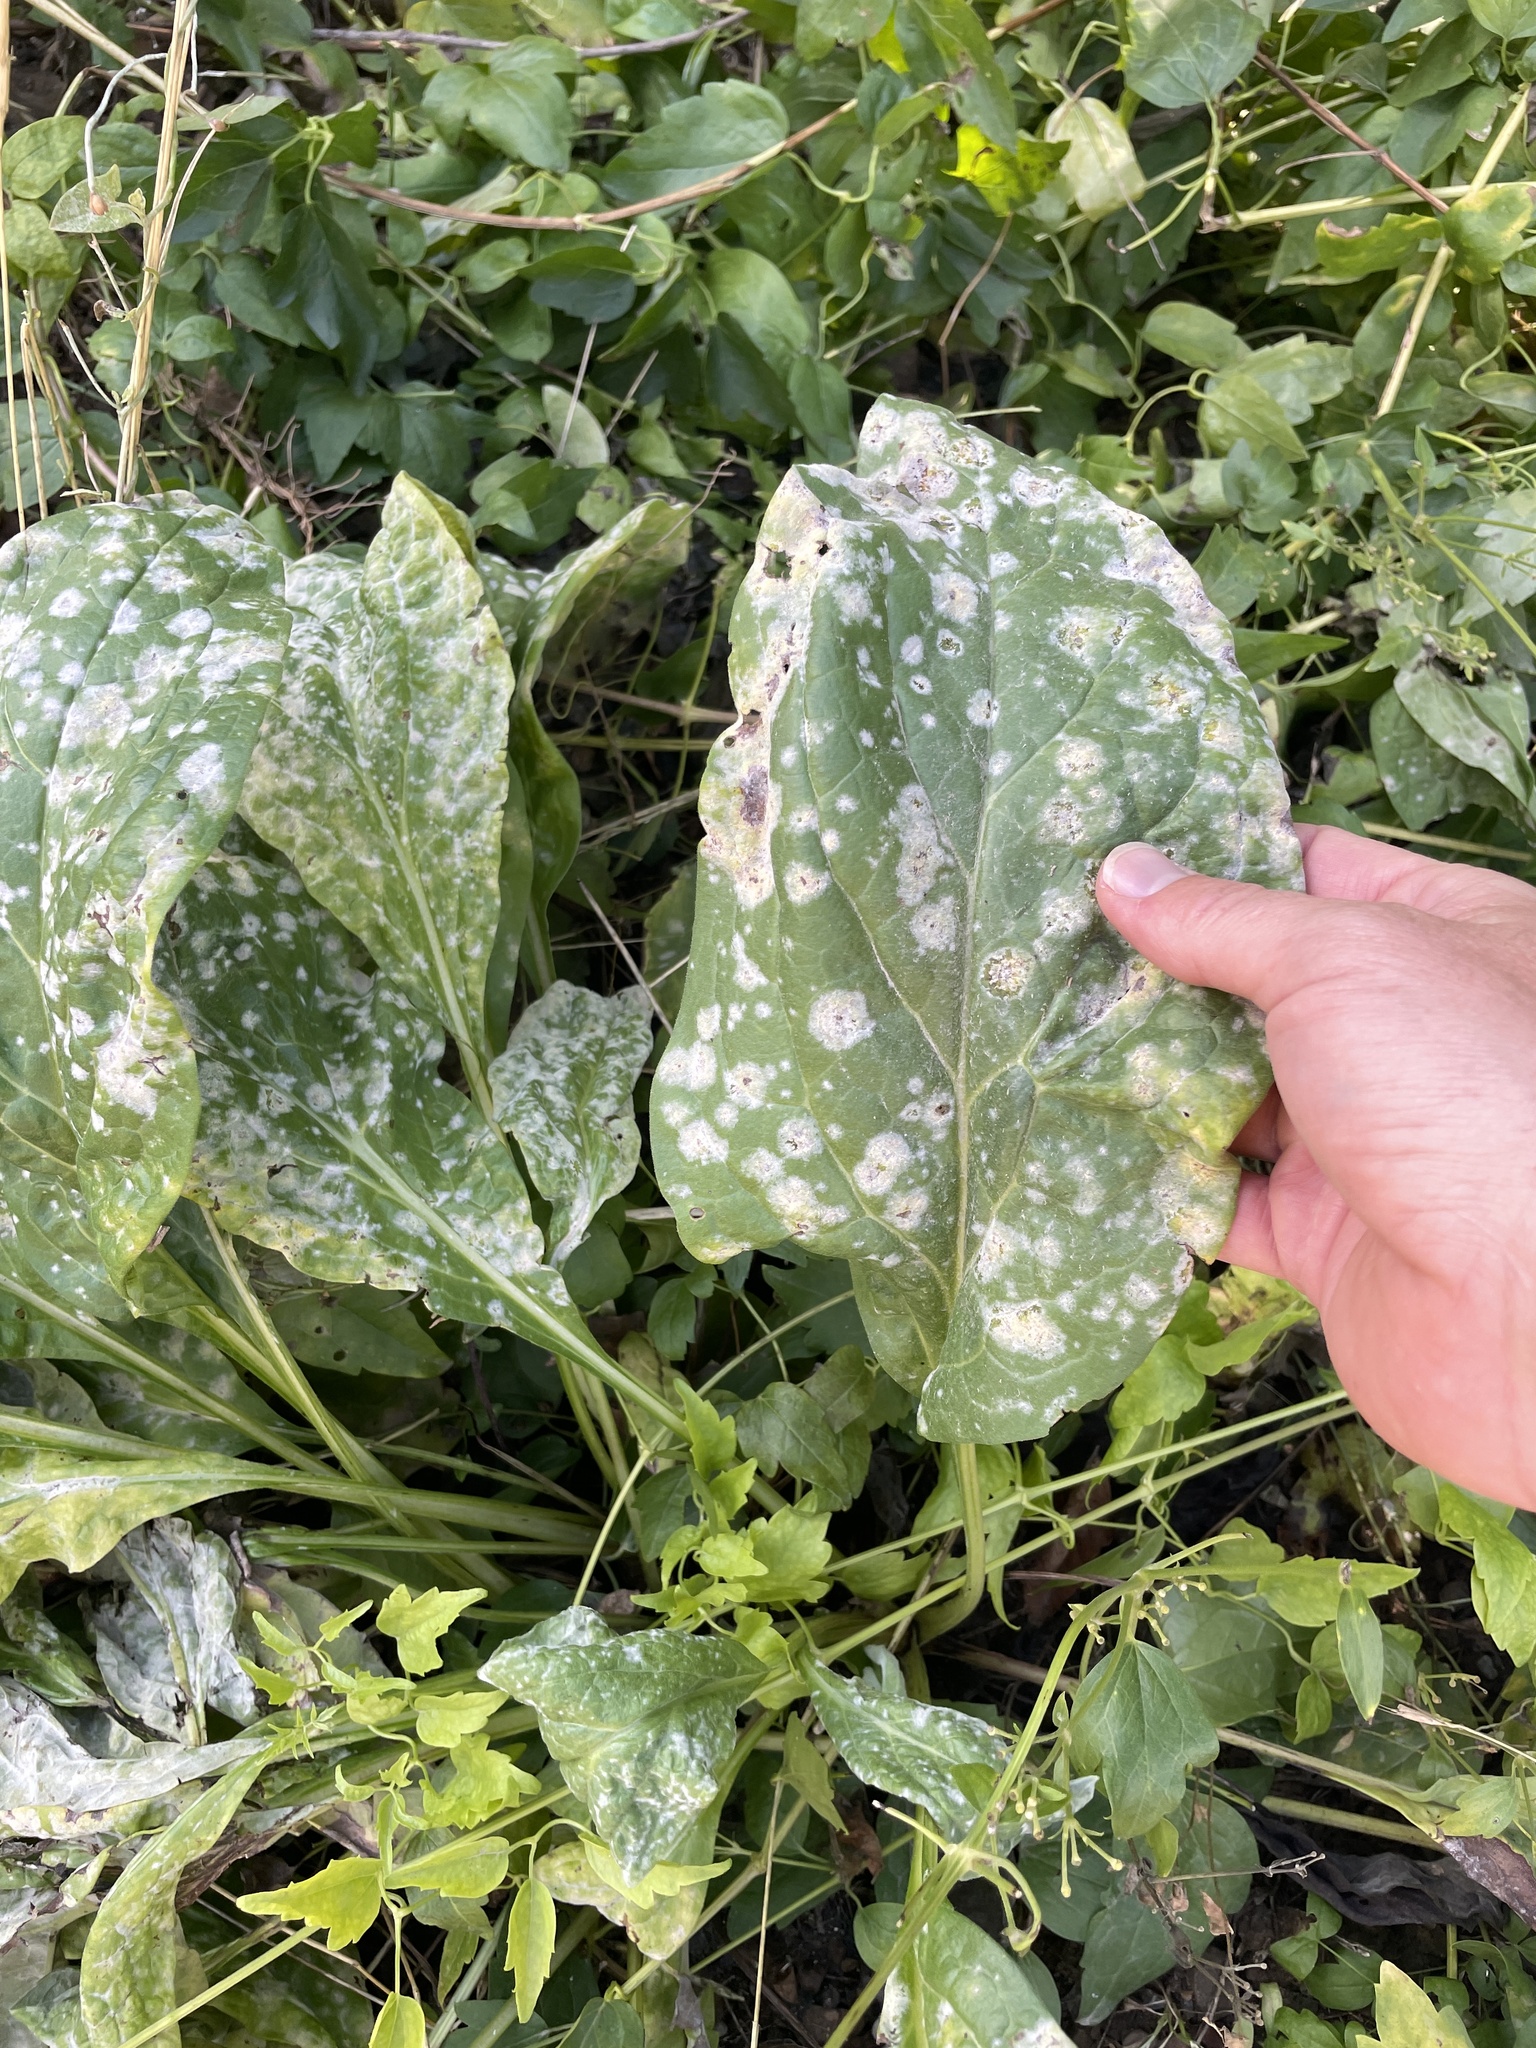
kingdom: Fungi
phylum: Ascomycota
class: Leotiomycetes
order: Helotiales
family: Erysiphaceae
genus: Golovinomyces
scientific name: Golovinomyces cynoglossi
